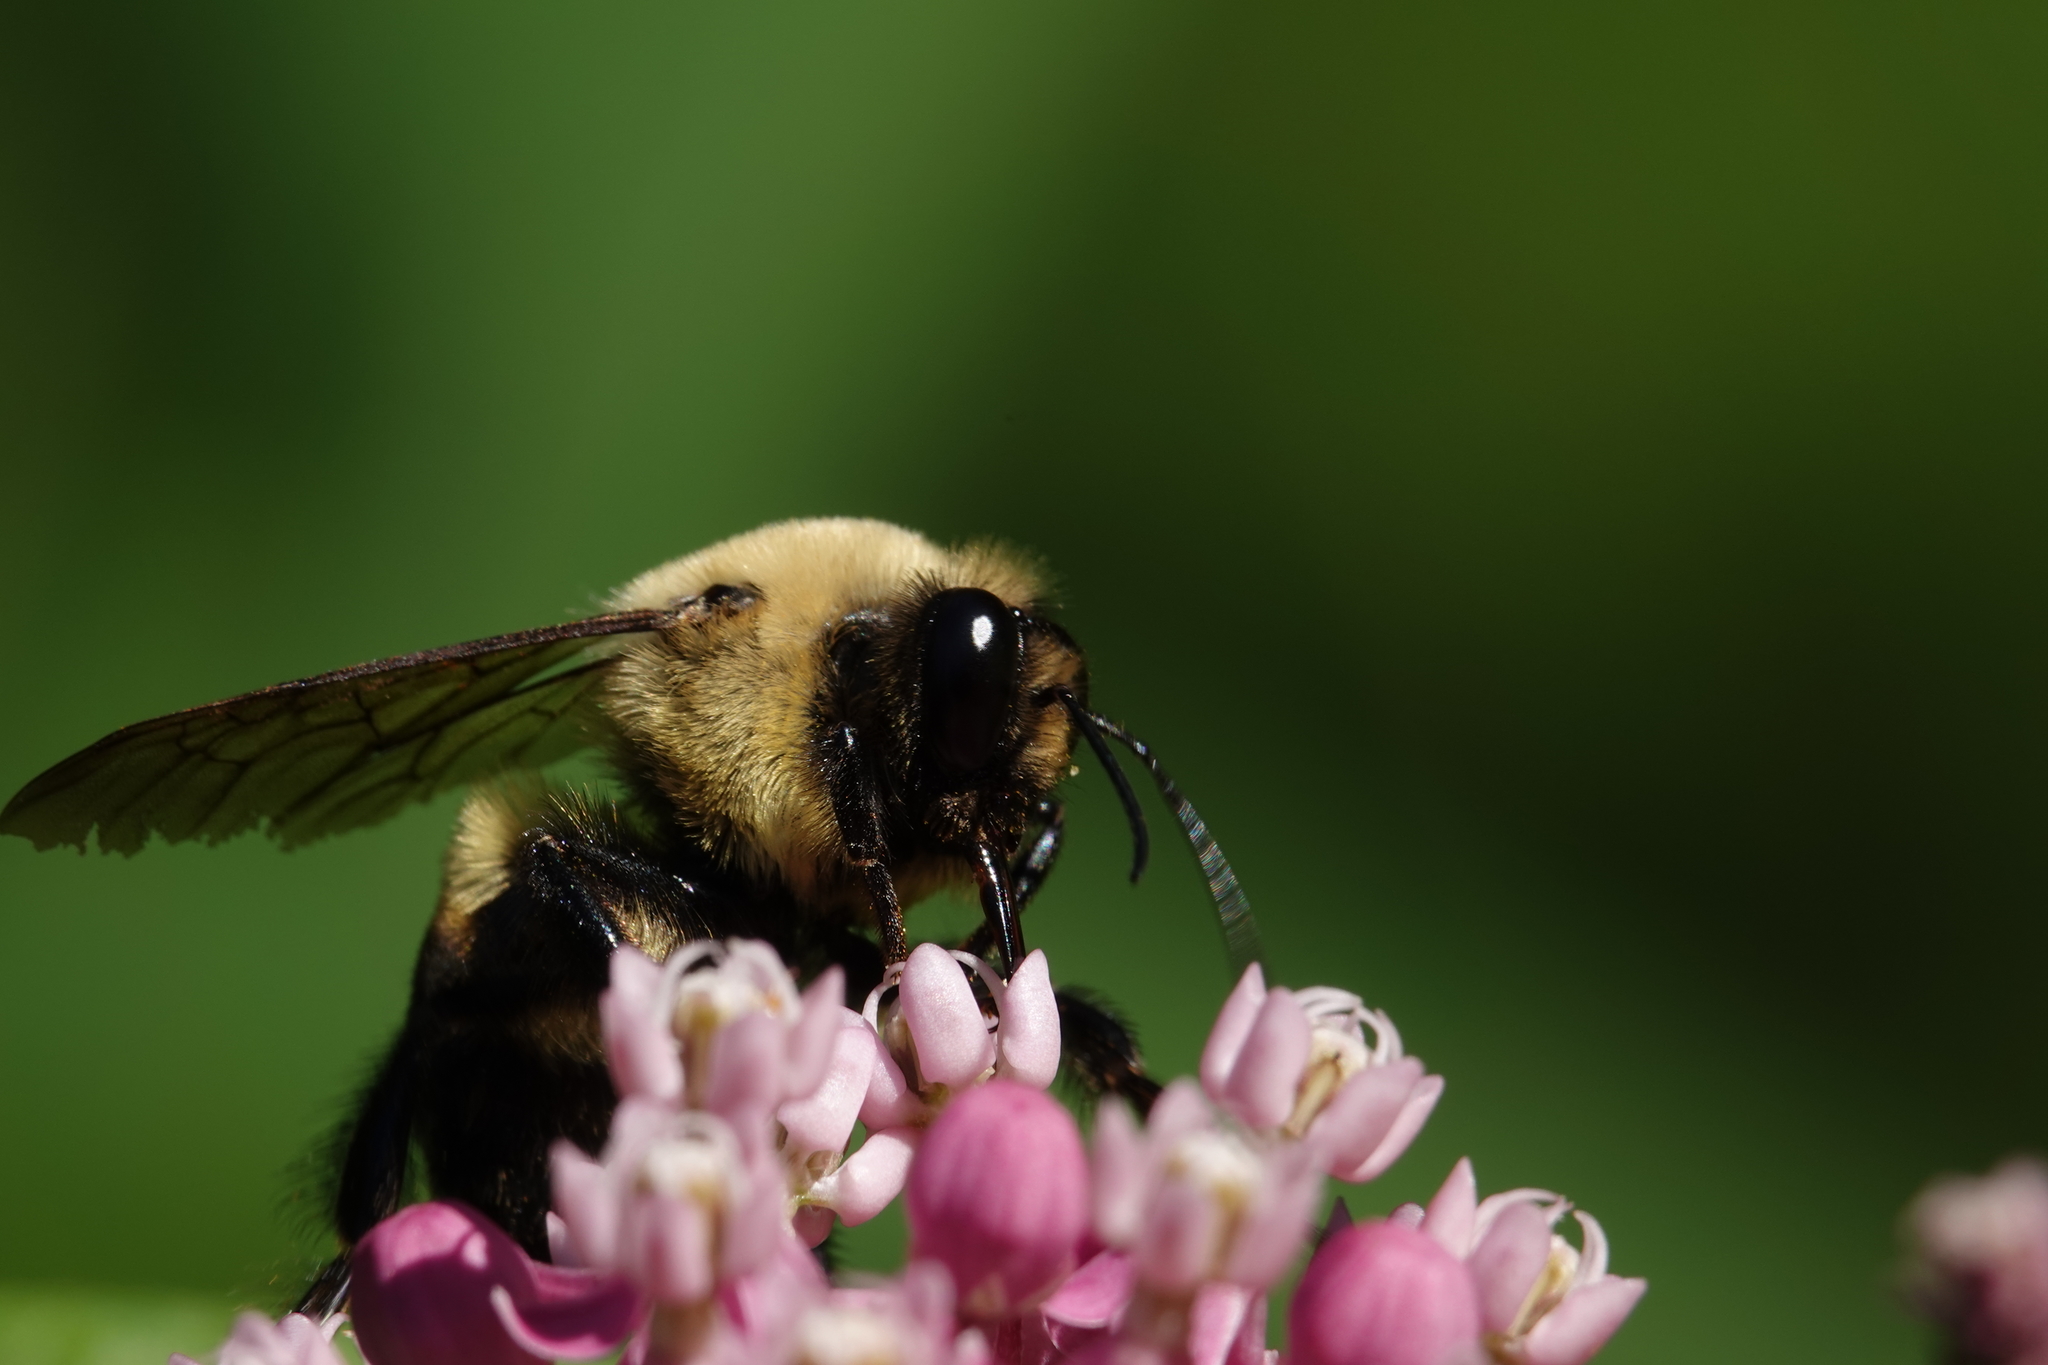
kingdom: Animalia
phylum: Arthropoda
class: Insecta
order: Hymenoptera
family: Apidae
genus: Bombus
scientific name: Bombus griseocollis
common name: Brown-belted bumble bee
